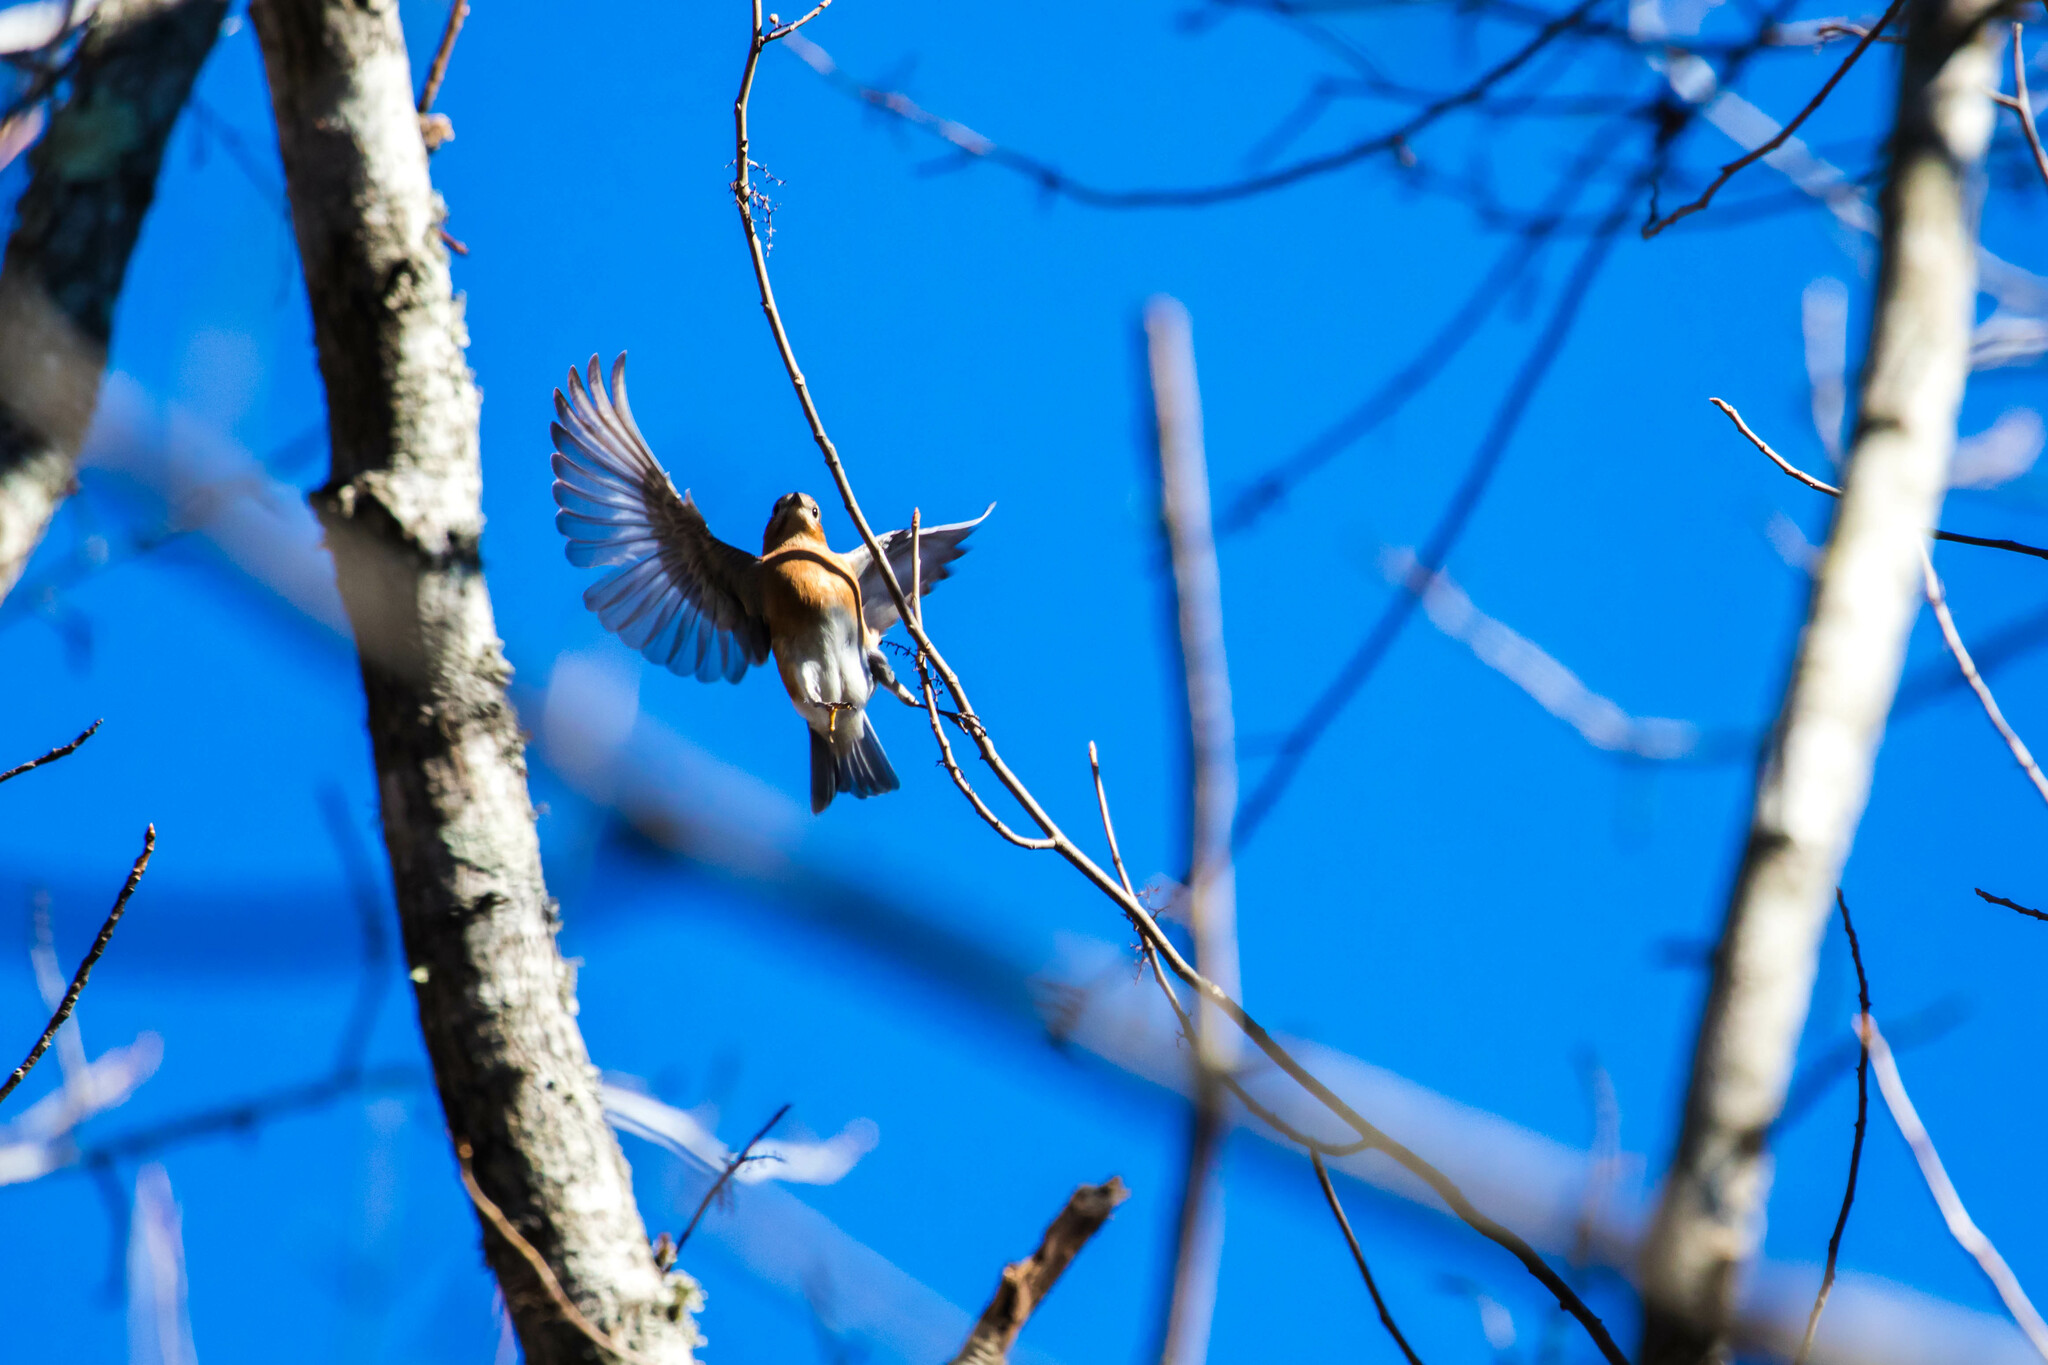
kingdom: Animalia
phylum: Chordata
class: Aves
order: Passeriformes
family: Turdidae
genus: Sialia
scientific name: Sialia sialis
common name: Eastern bluebird
